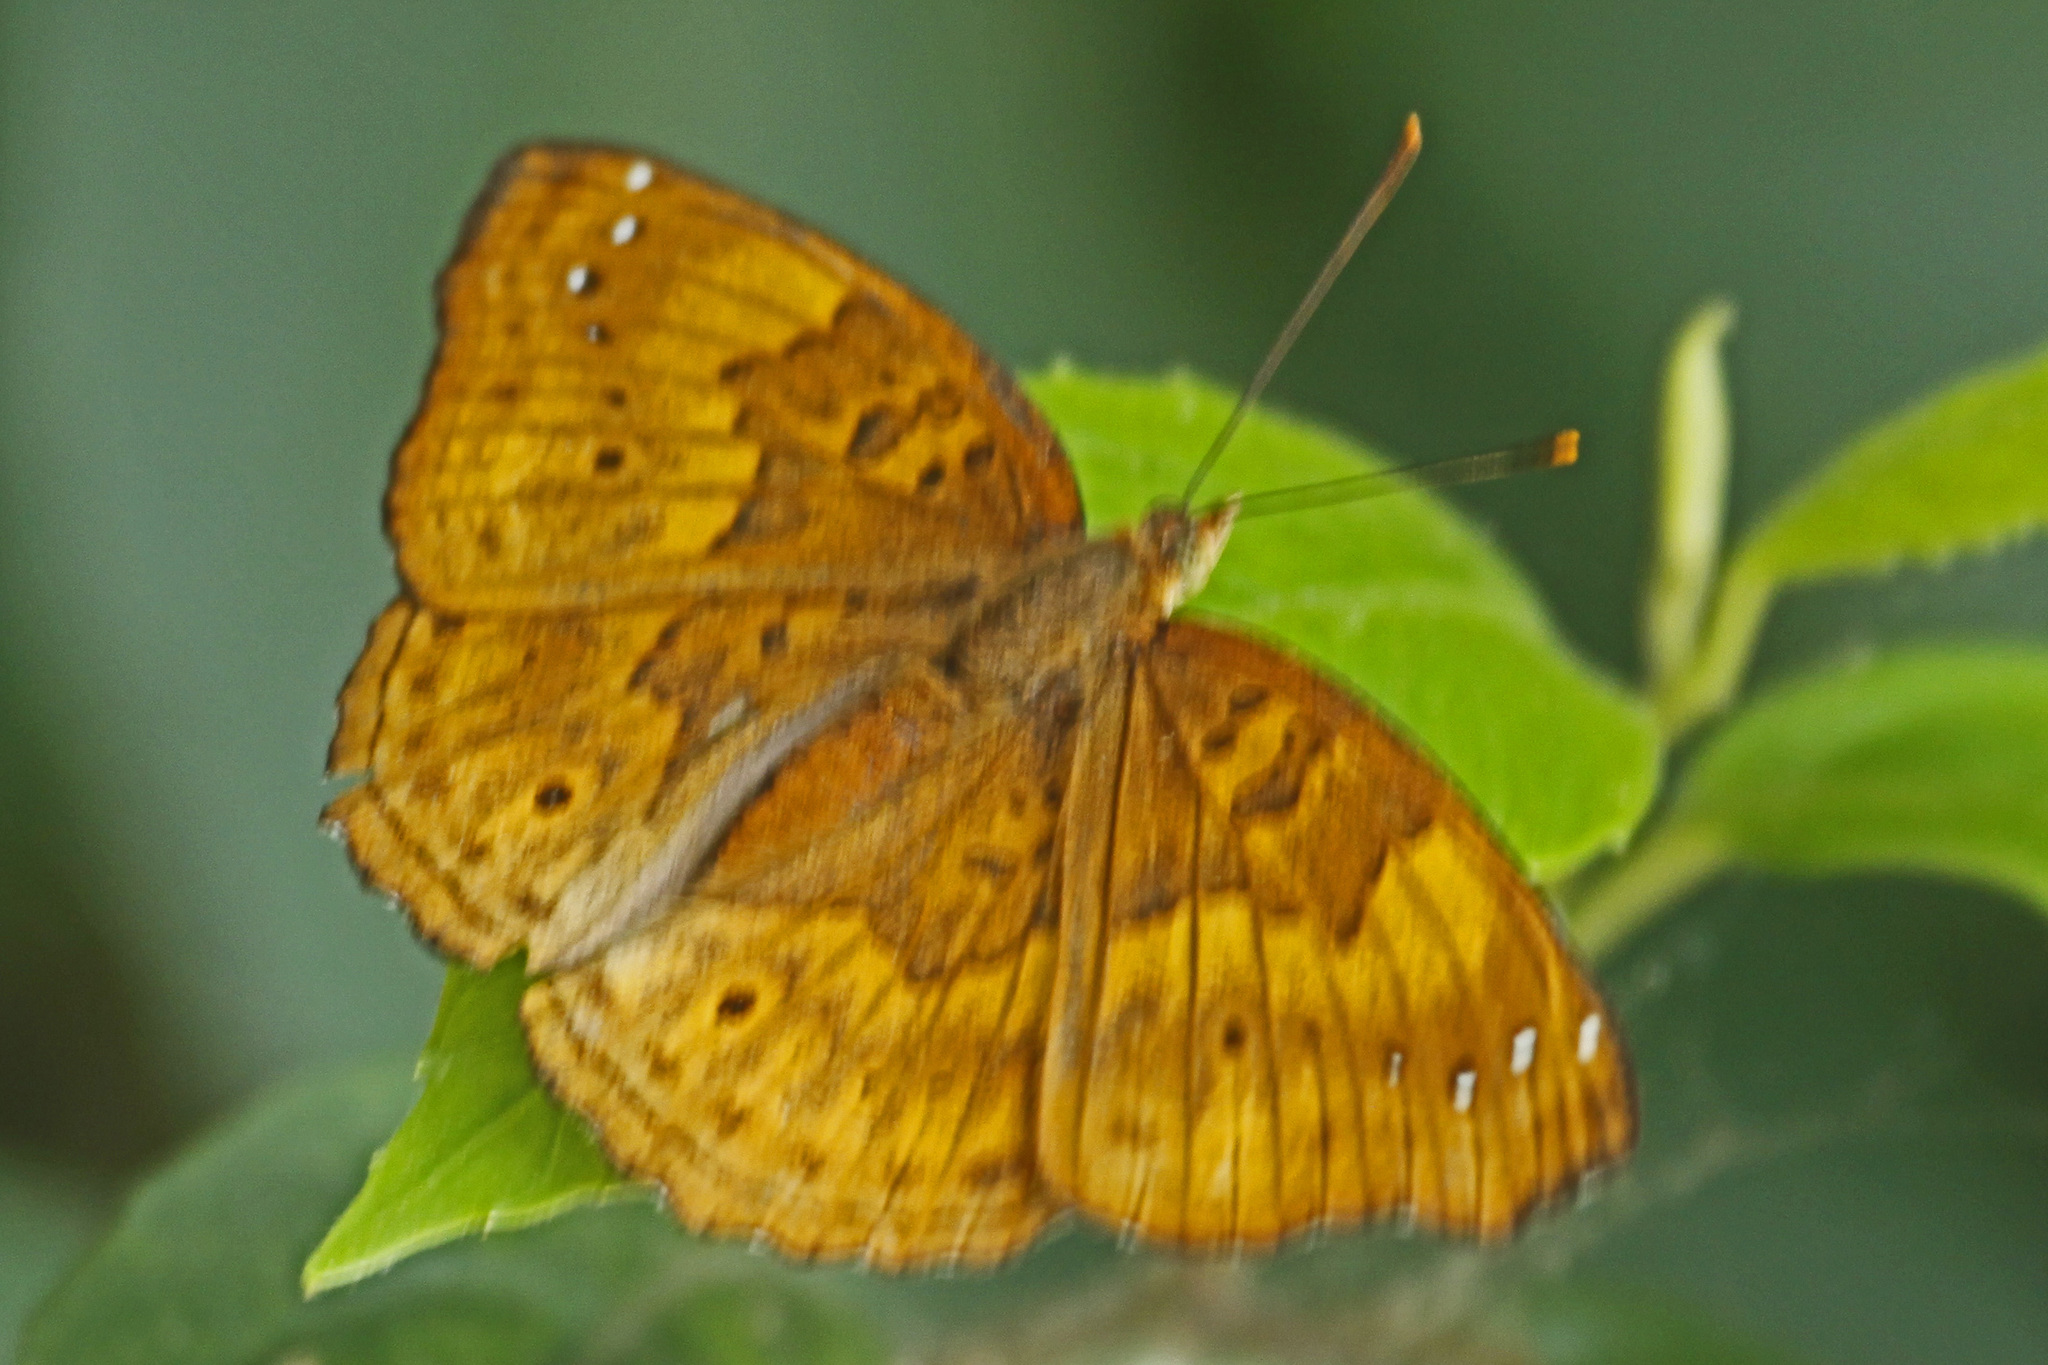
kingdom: Animalia
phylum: Arthropoda
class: Insecta
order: Lepidoptera
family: Nymphalidae
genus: Apatura
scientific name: Apatura Rohana spec
